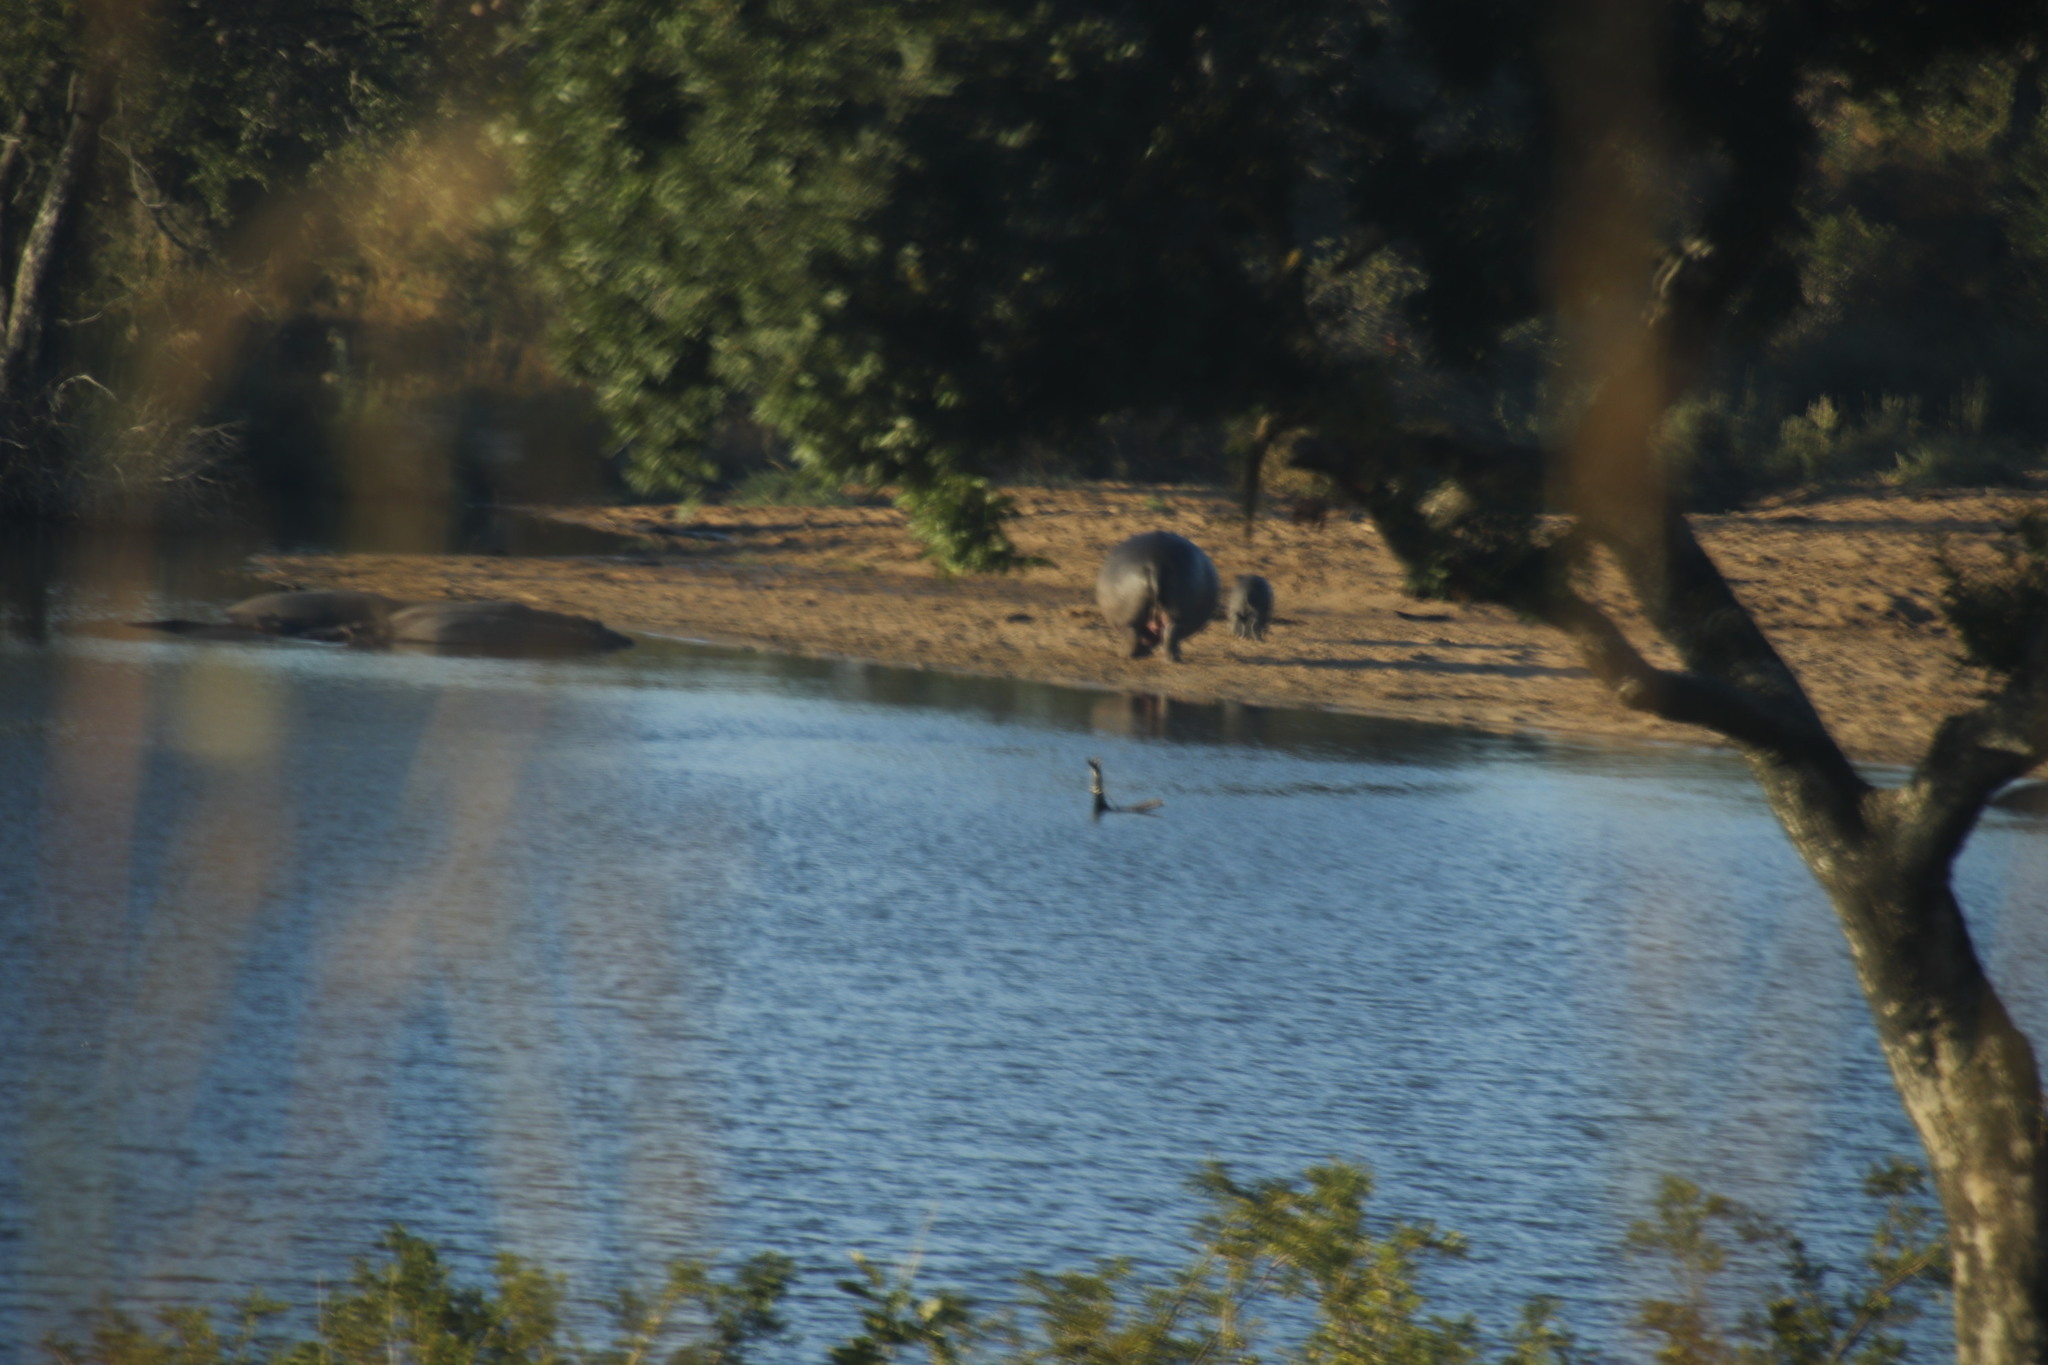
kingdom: Animalia
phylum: Chordata
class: Mammalia
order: Artiodactyla
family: Hippopotamidae
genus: Hippopotamus
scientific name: Hippopotamus amphibius
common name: Common hippopotamus
